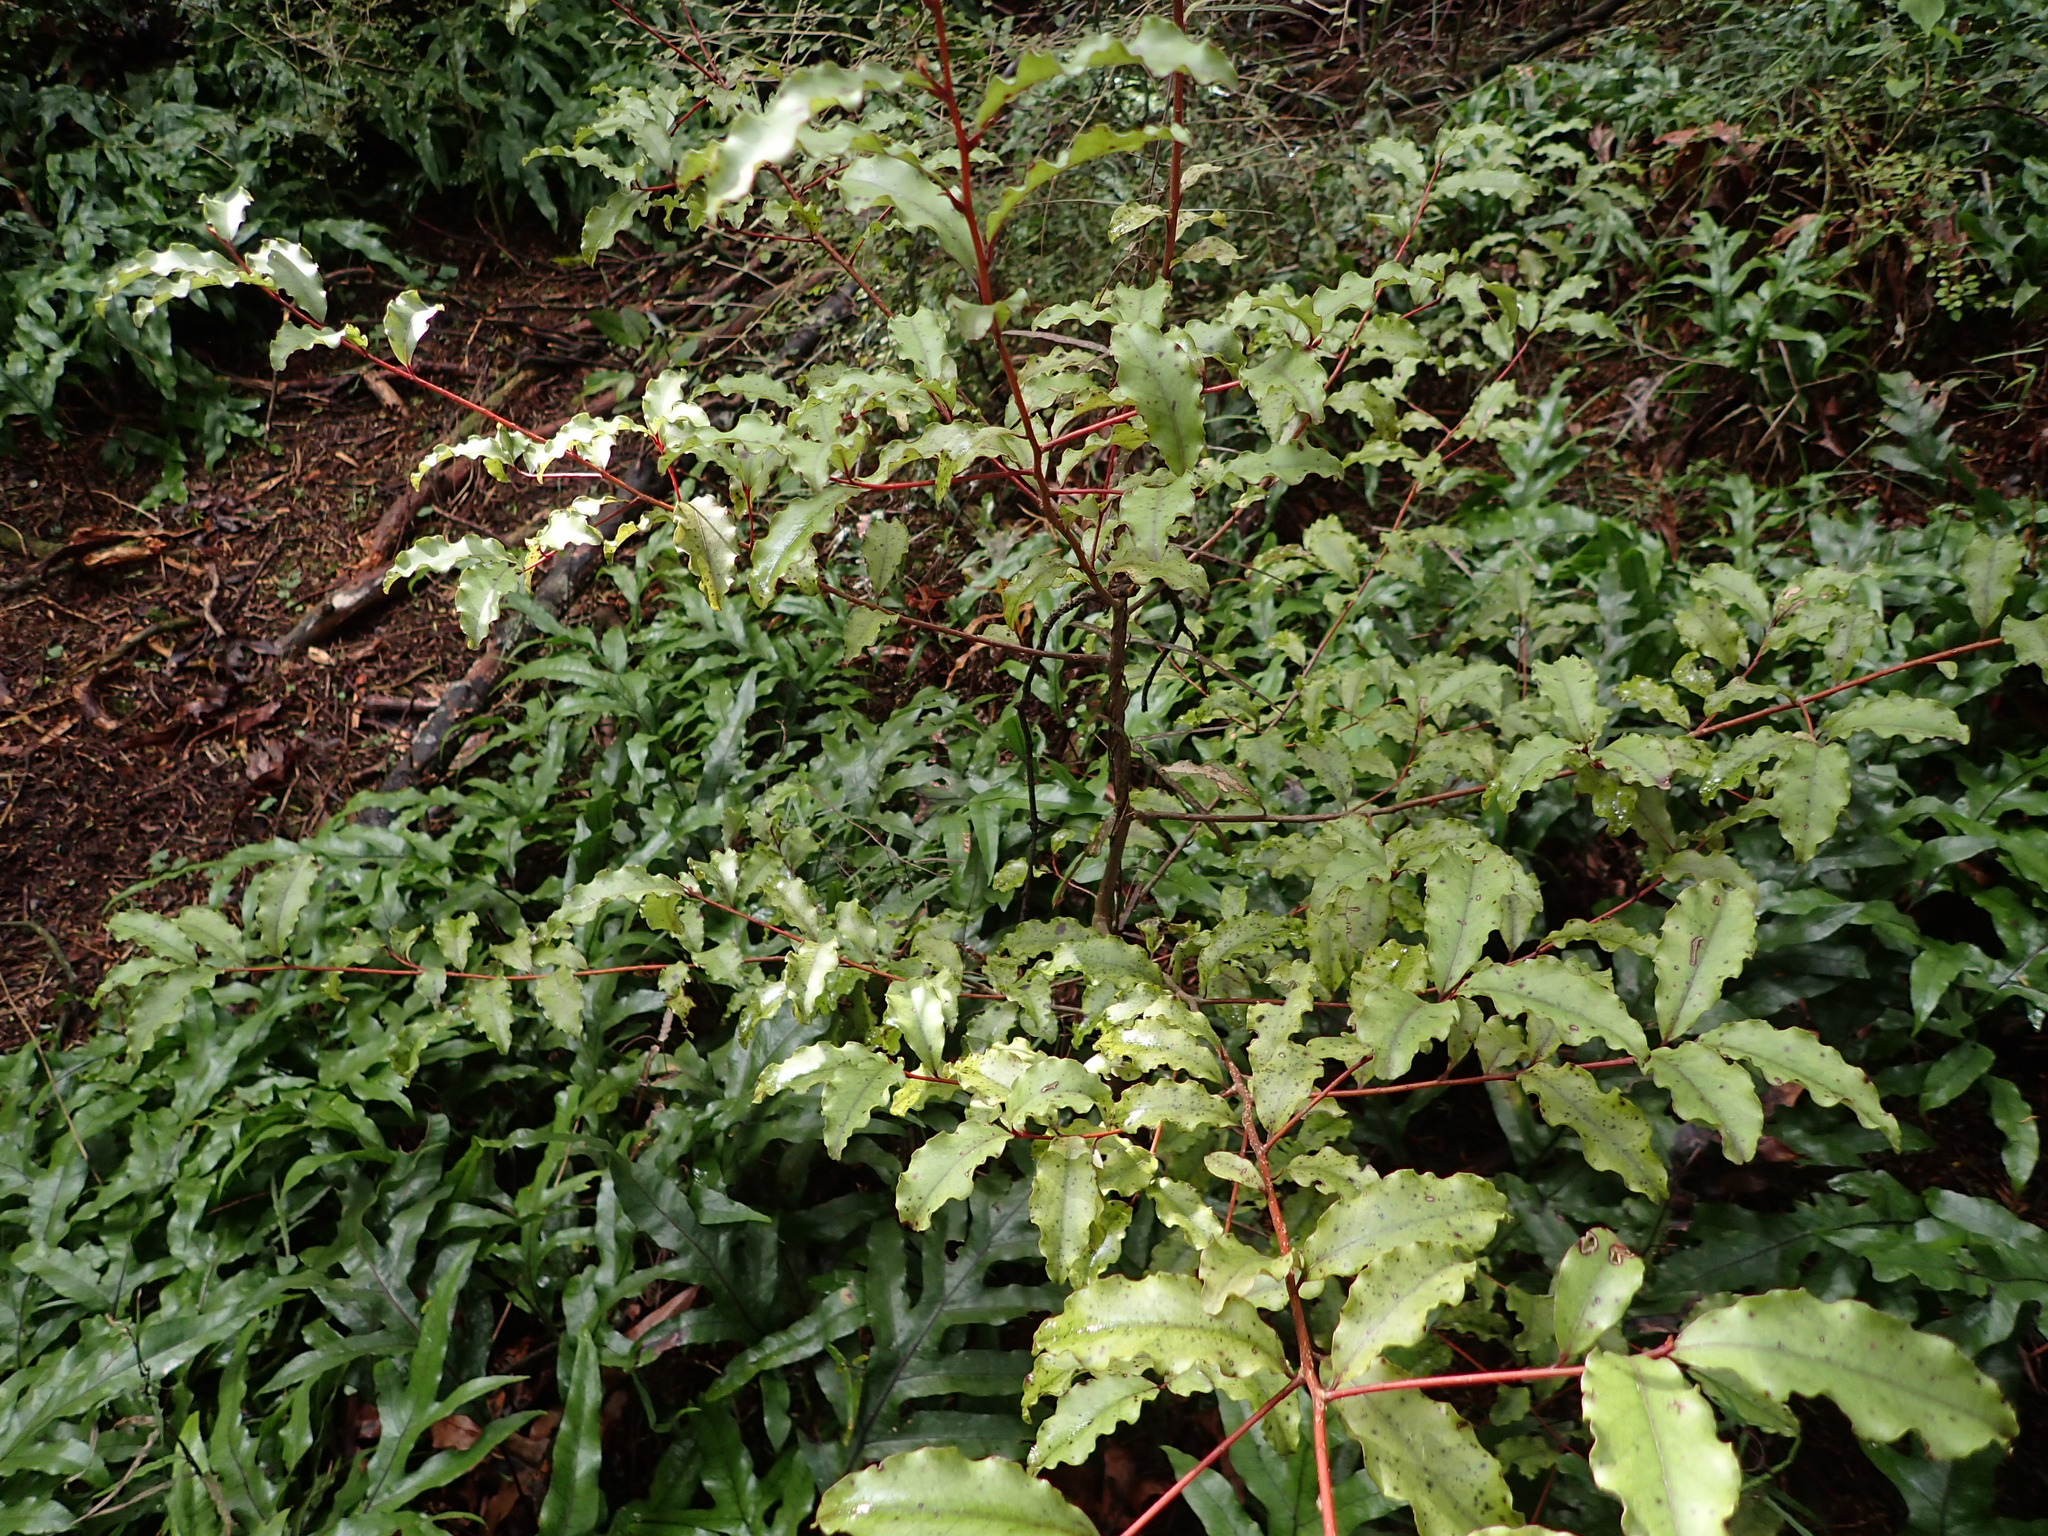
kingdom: Plantae
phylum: Tracheophyta
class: Magnoliopsida
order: Ericales
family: Primulaceae
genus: Myrsine
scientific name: Myrsine australis
